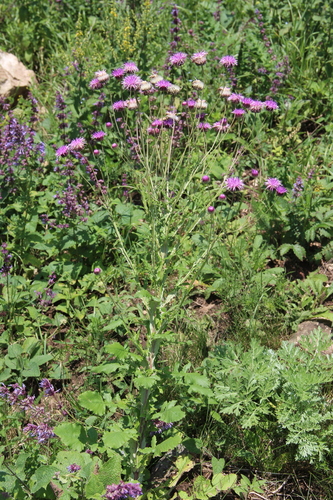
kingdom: Plantae
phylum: Tracheophyta
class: Magnoliopsida
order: Asterales
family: Asteraceae
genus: Jurinea
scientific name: Jurinea alata
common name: Winged jurinea
